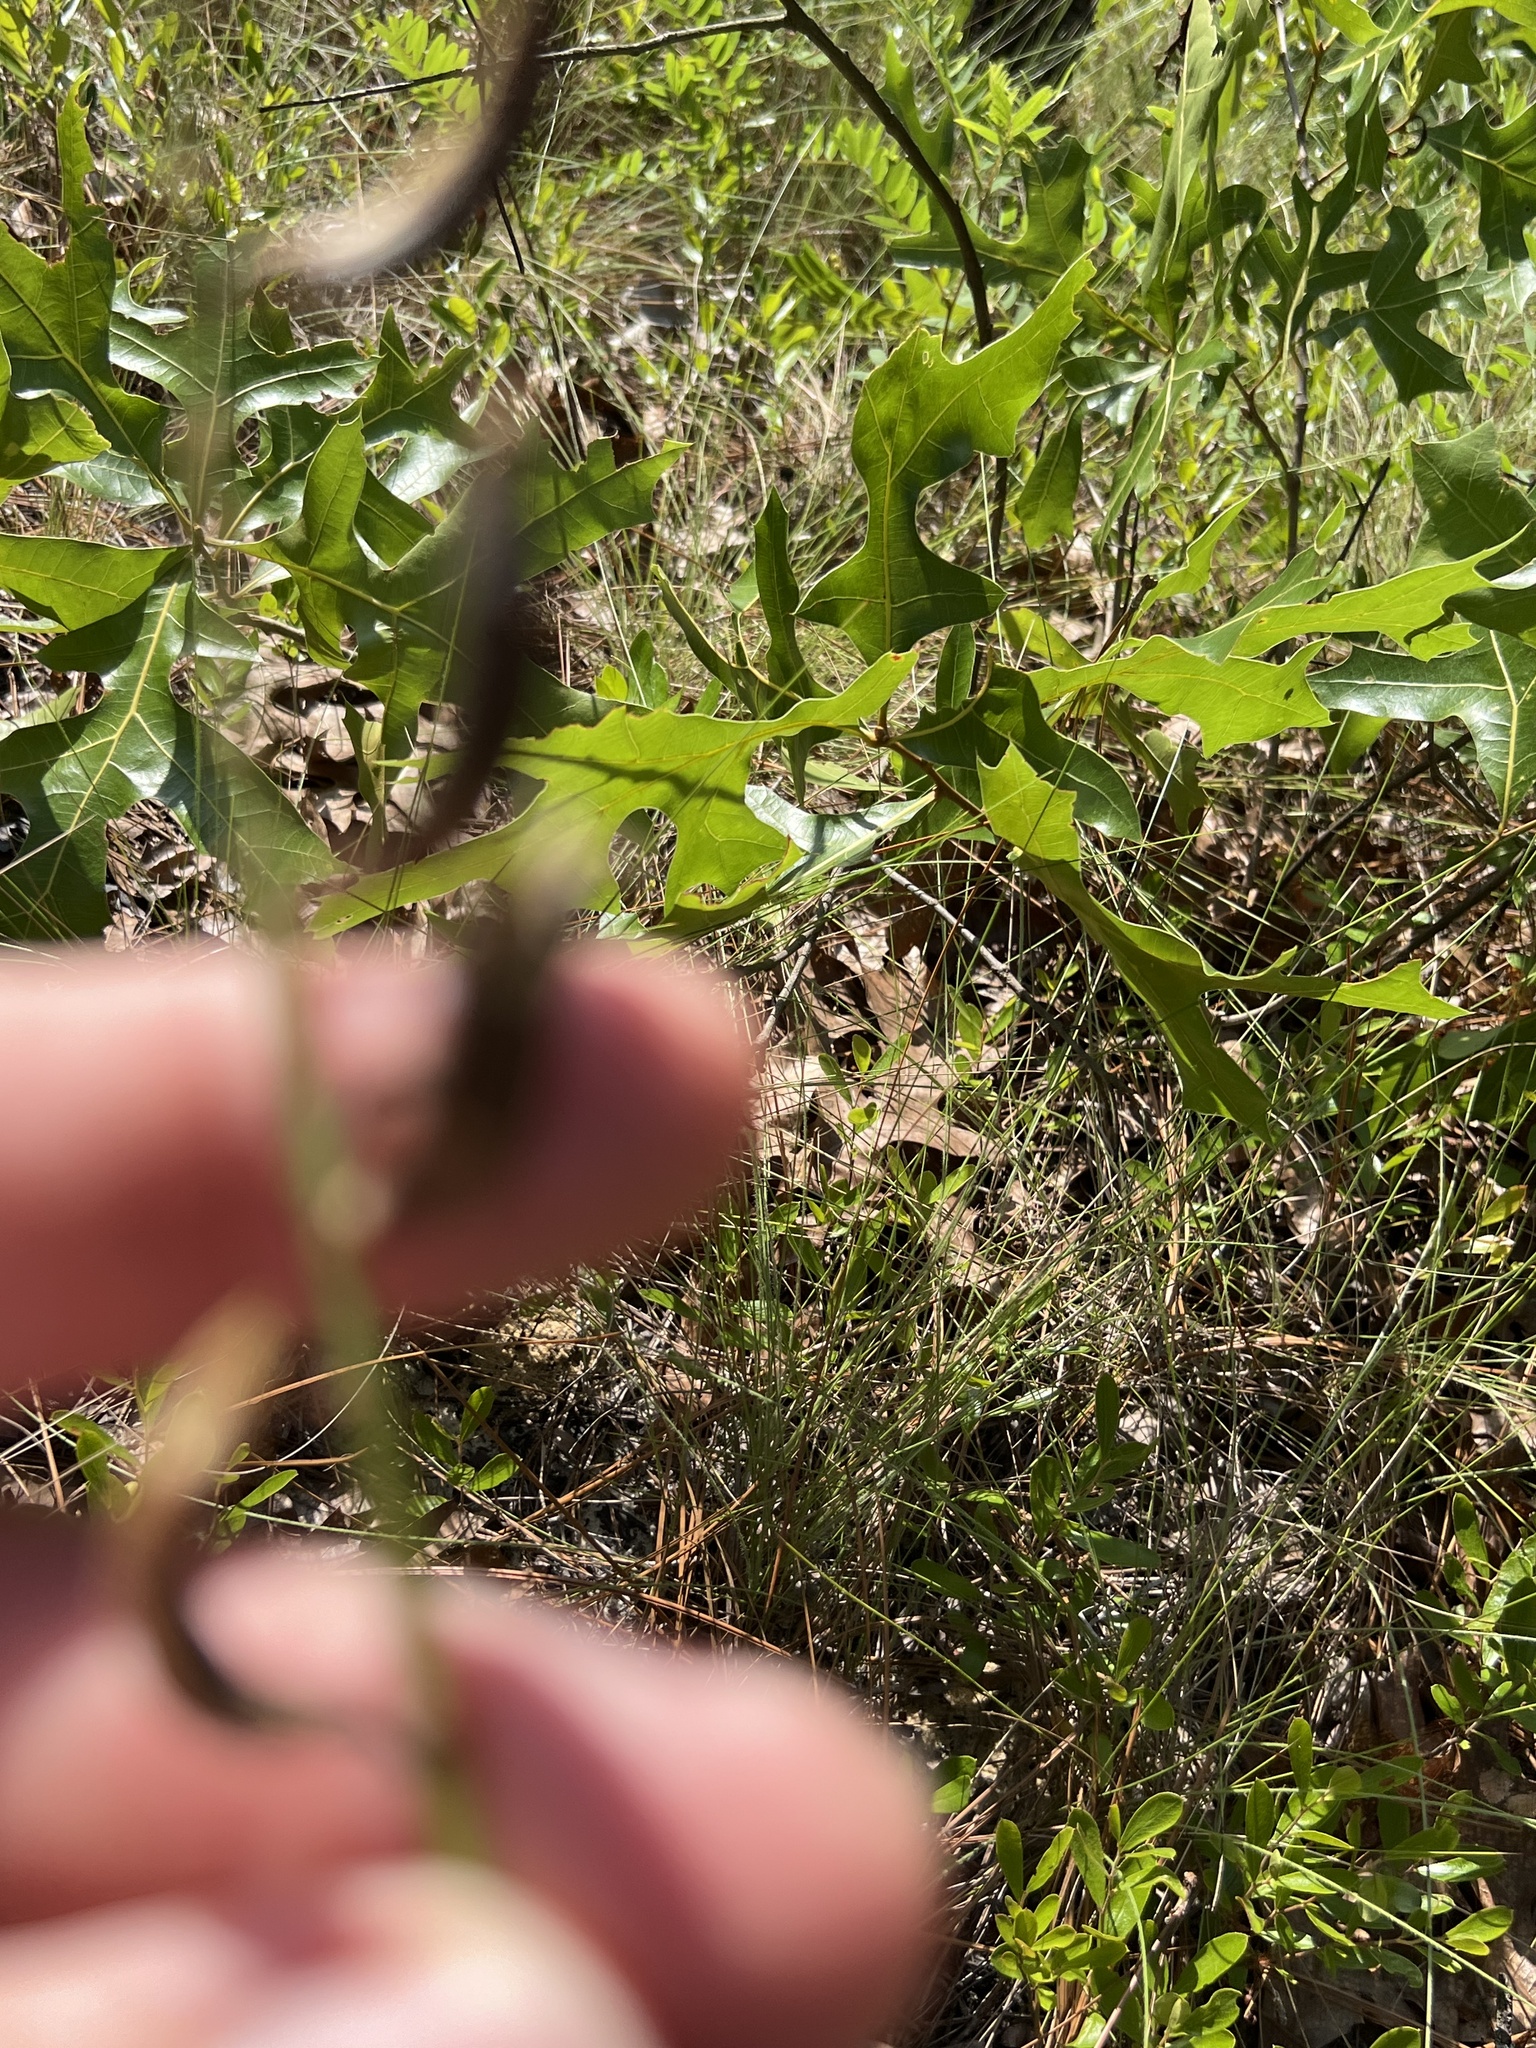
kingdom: Plantae
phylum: Tracheophyta
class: Magnoliopsida
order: Fabales
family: Fabaceae
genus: Astragalus
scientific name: Astragalus michauxii
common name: Michaux milk-vetch
